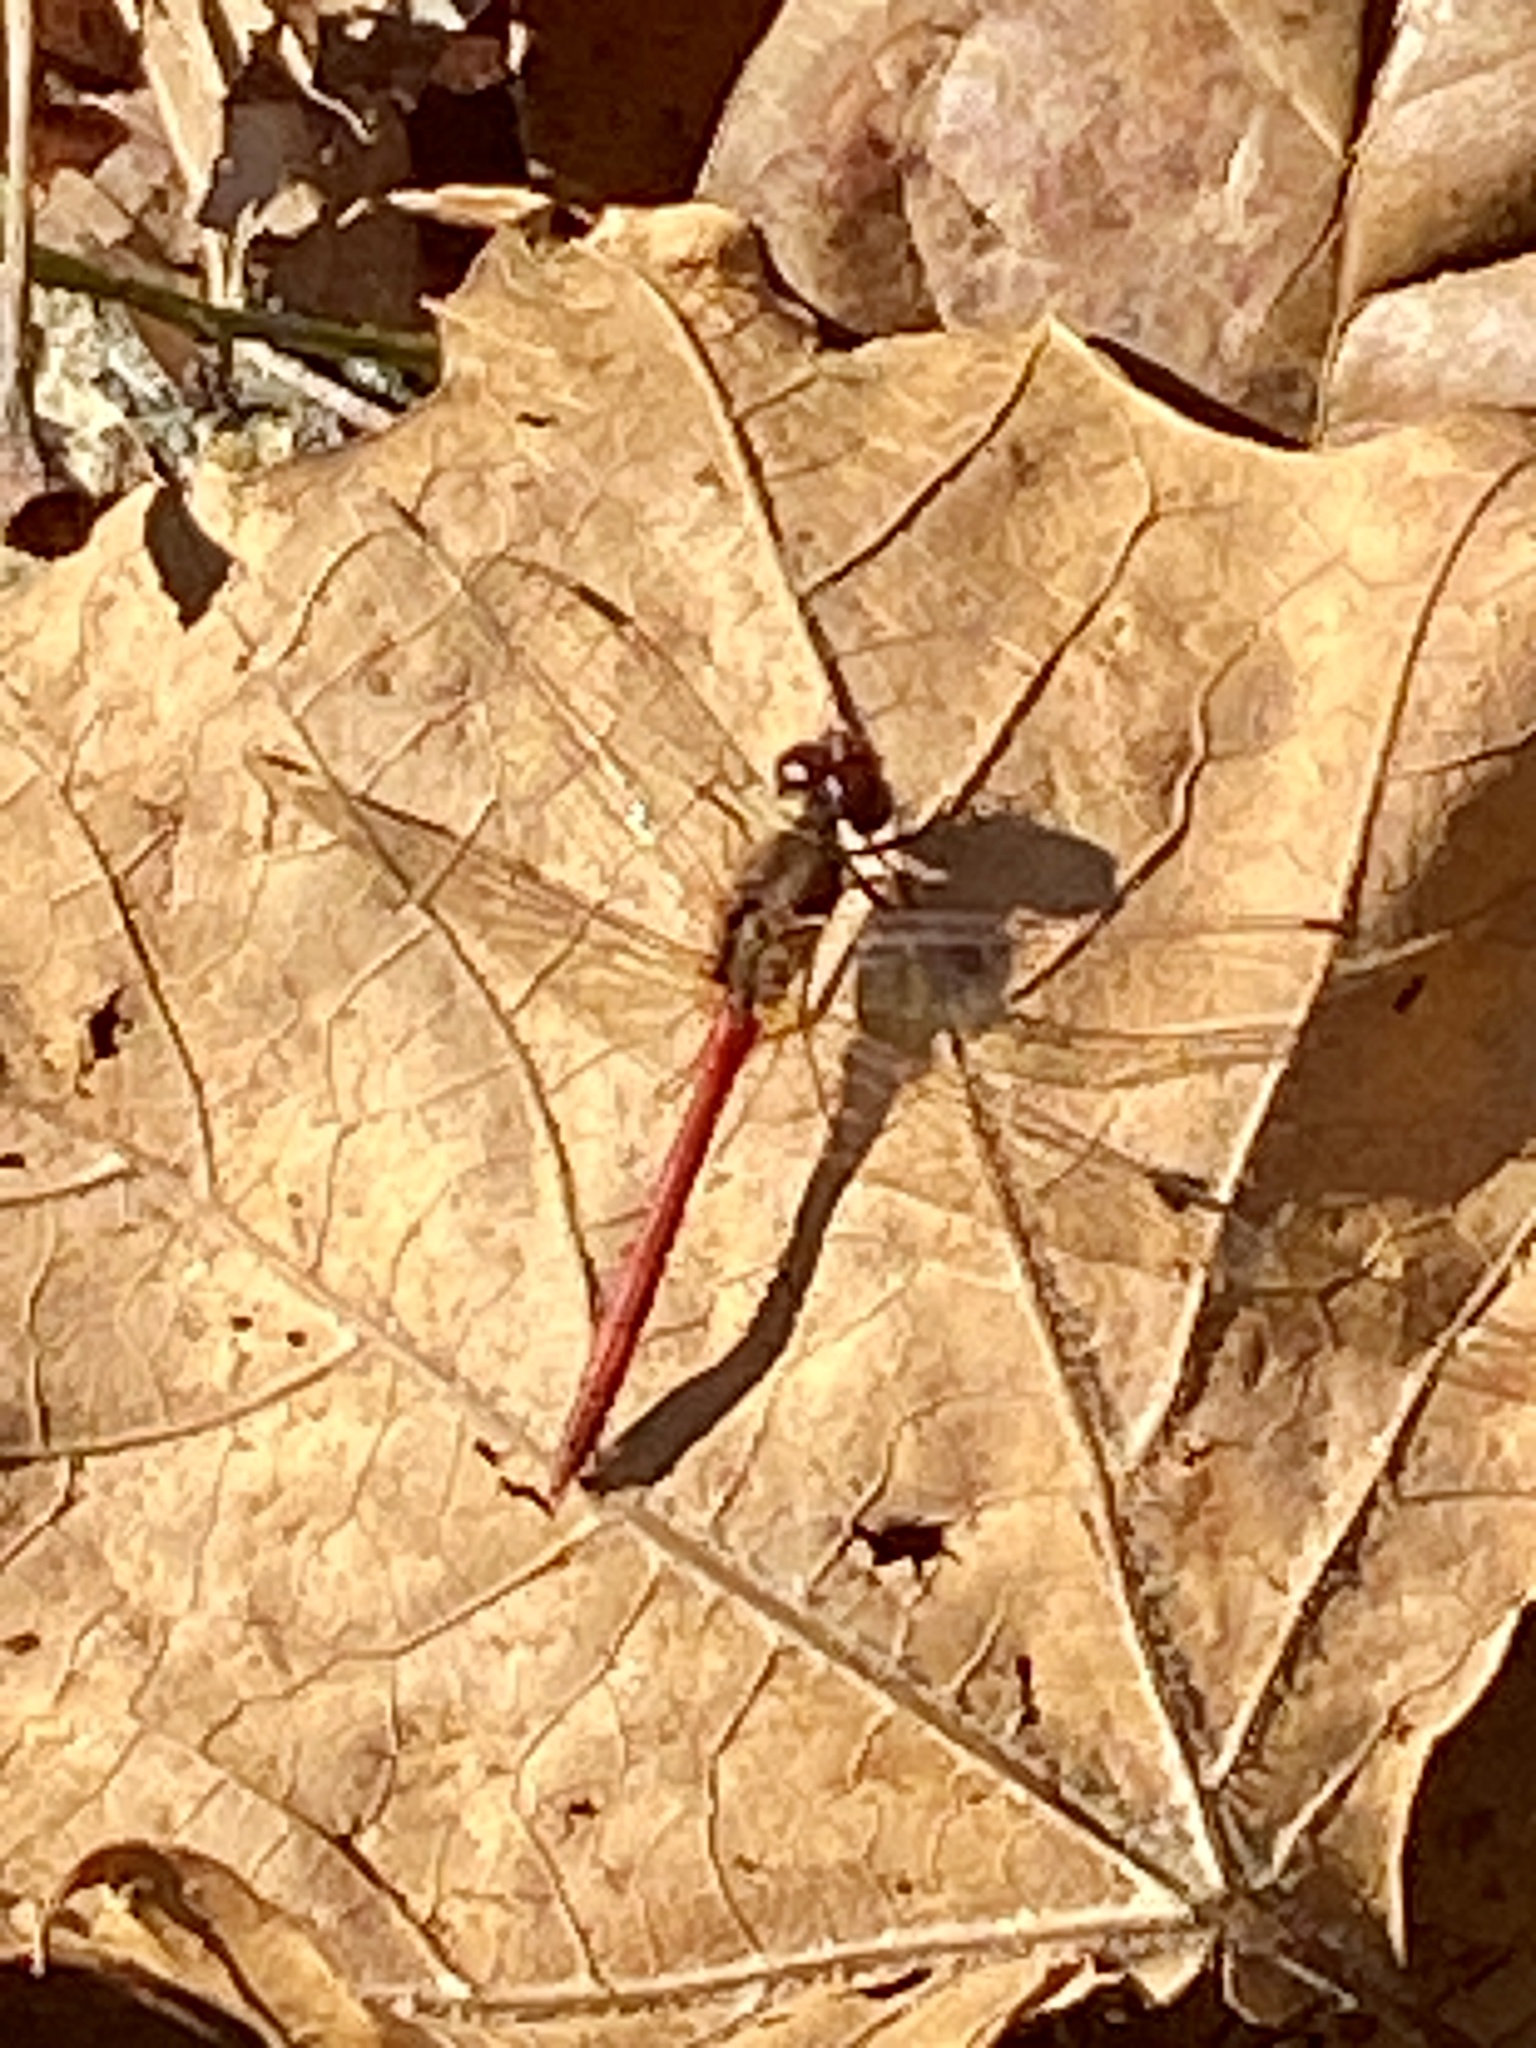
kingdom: Animalia
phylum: Arthropoda
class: Insecta
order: Odonata
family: Libellulidae
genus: Sympetrum
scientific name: Sympetrum vicinum
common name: Autumn meadowhawk
